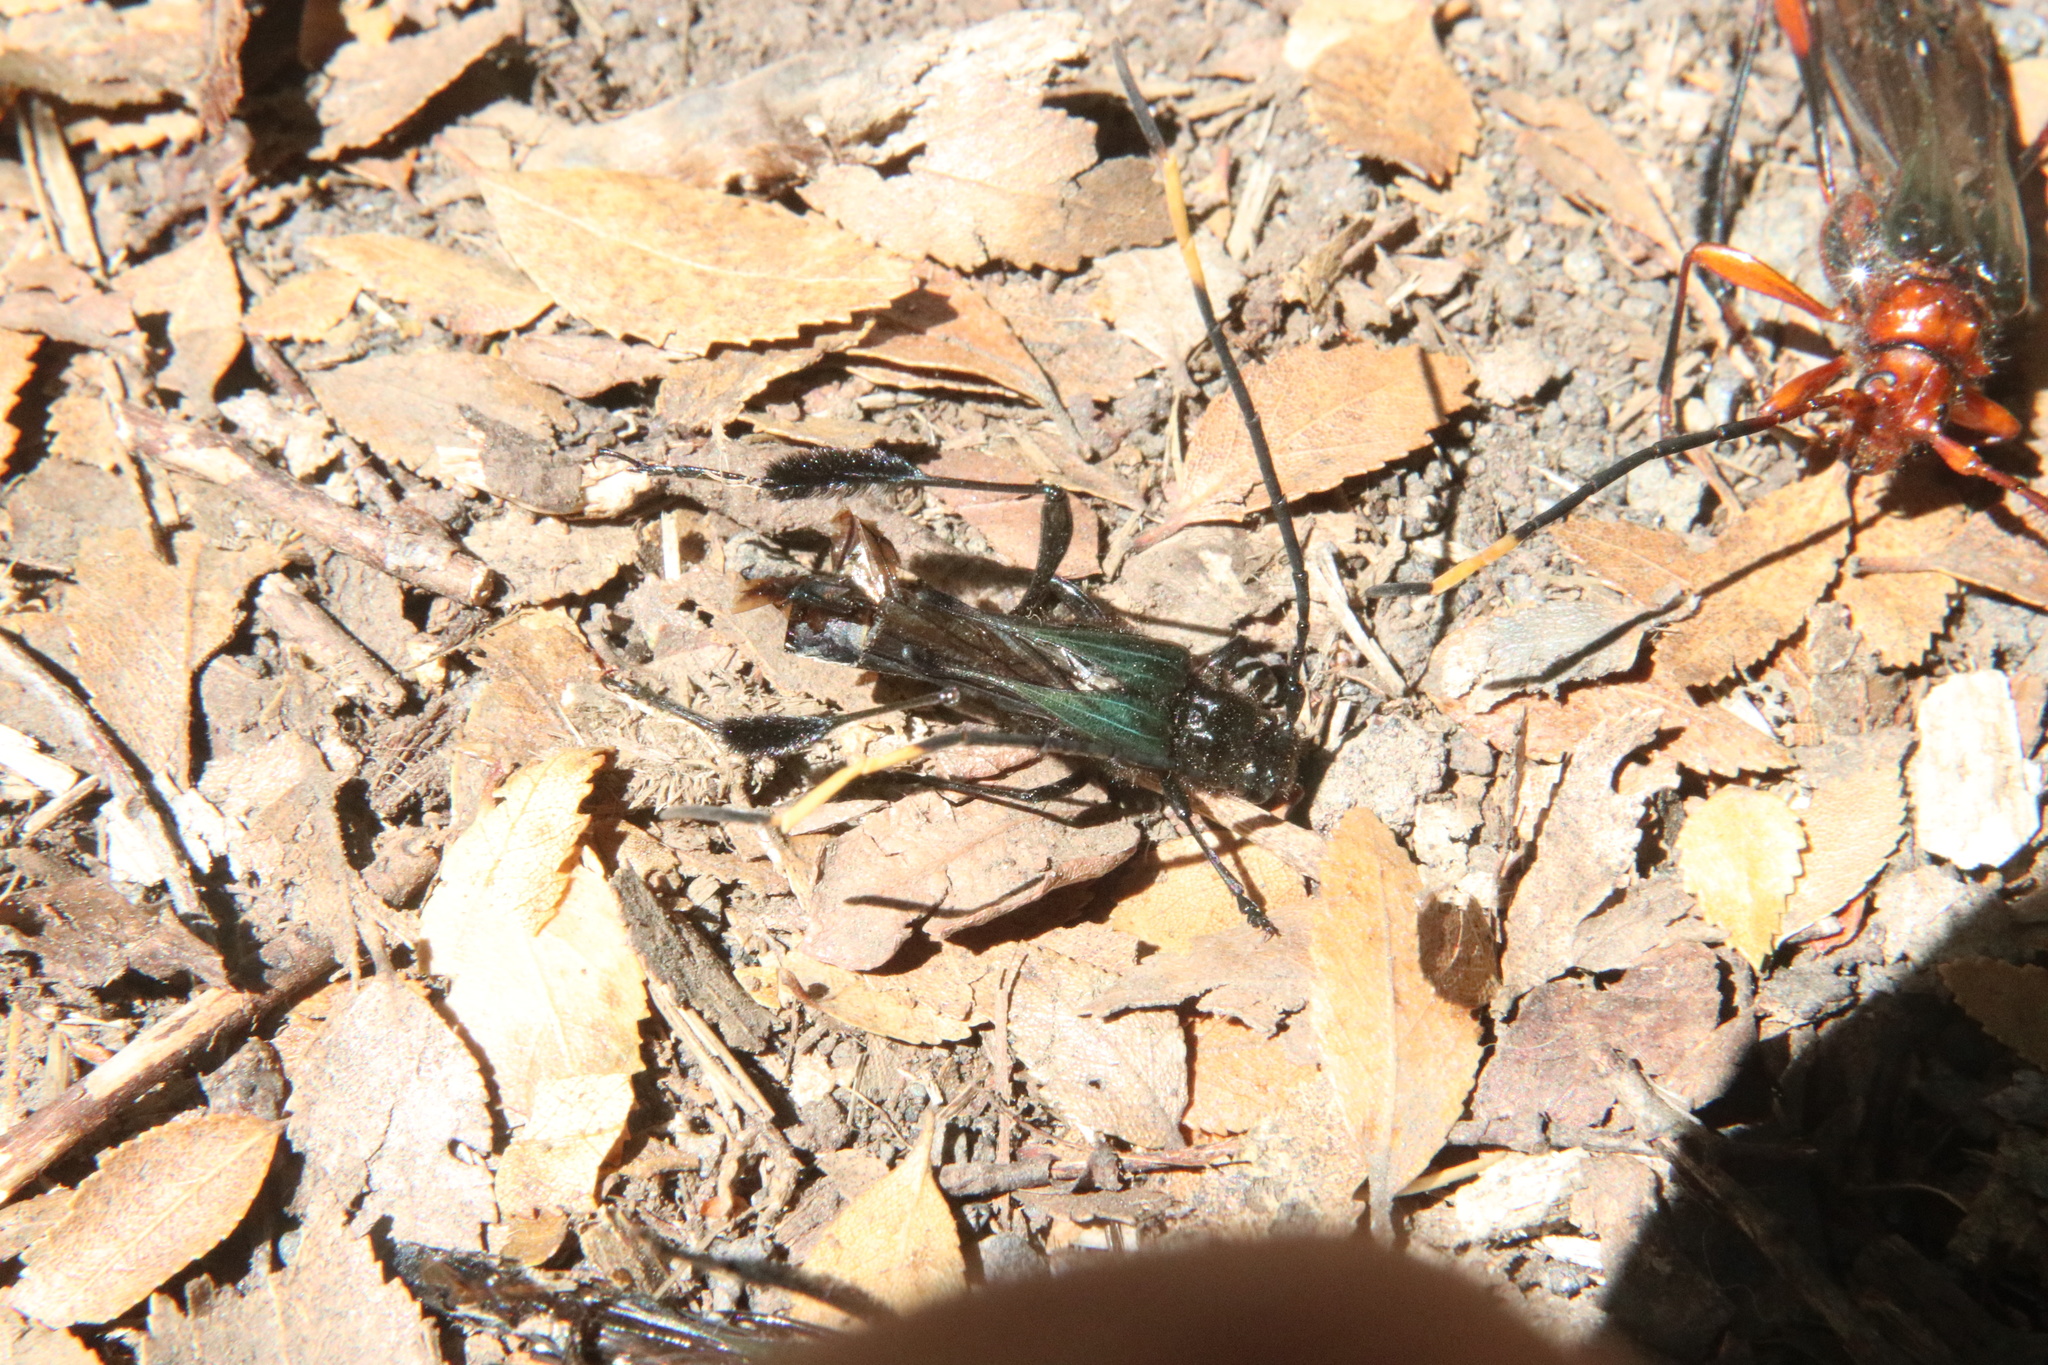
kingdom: Animalia
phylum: Arthropoda
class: Insecta
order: Coleoptera
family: Cerambycidae
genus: Planopus
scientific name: Planopus laniniensis
